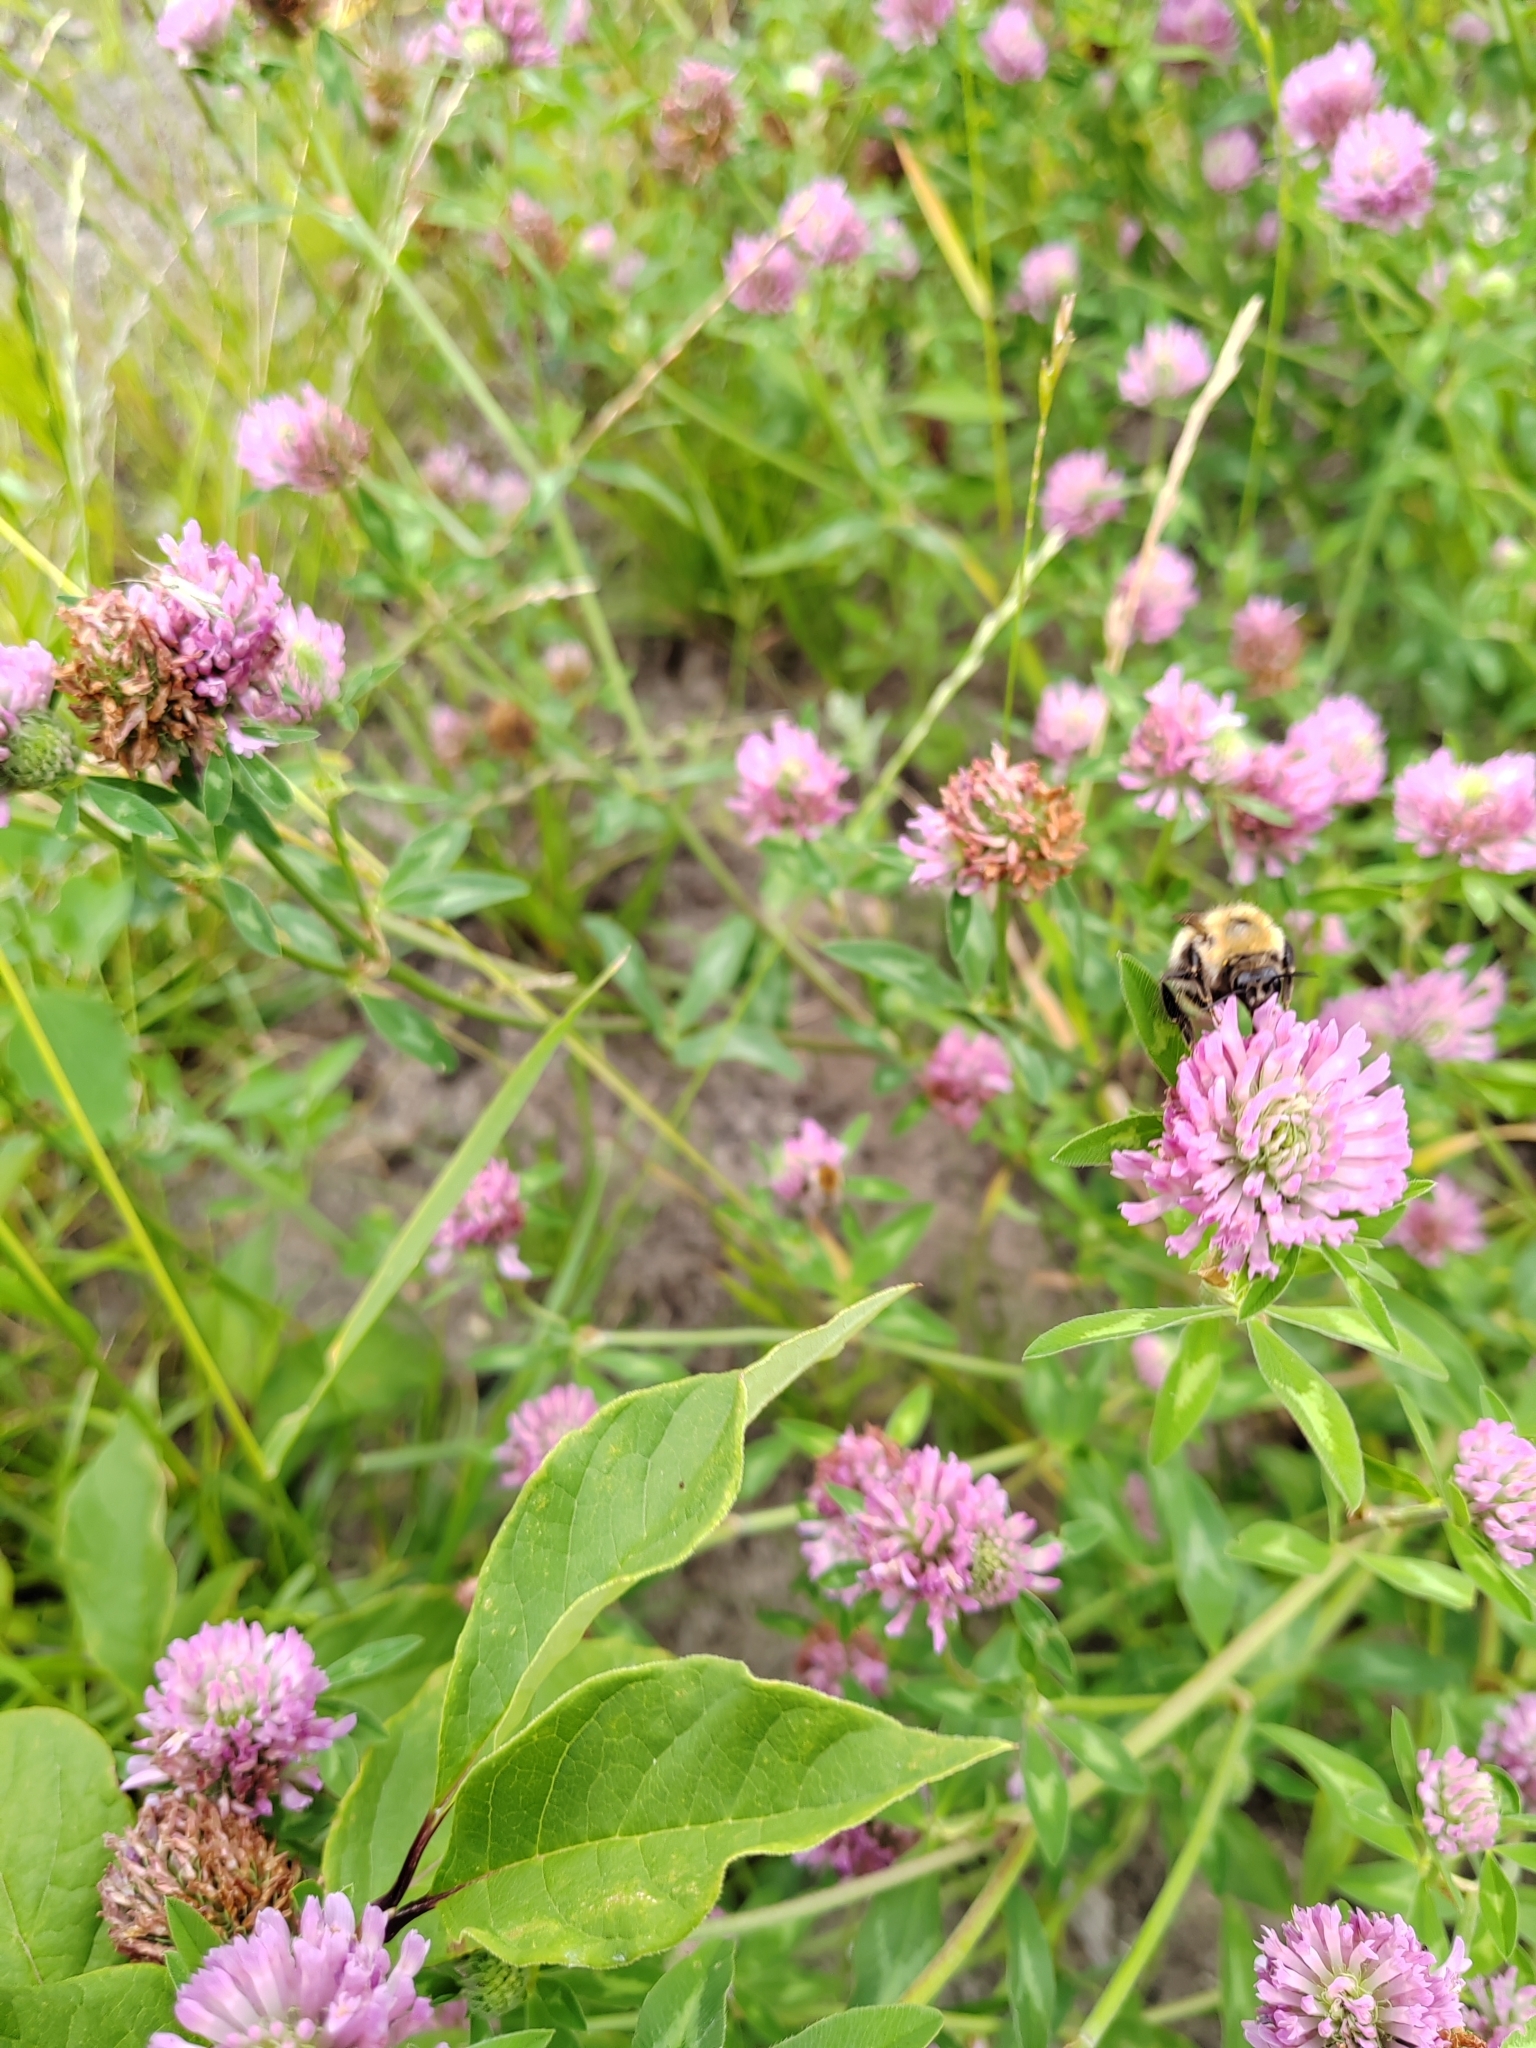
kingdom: Plantae
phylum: Tracheophyta
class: Magnoliopsida
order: Fabales
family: Fabaceae
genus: Trifolium
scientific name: Trifolium pratense
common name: Red clover
